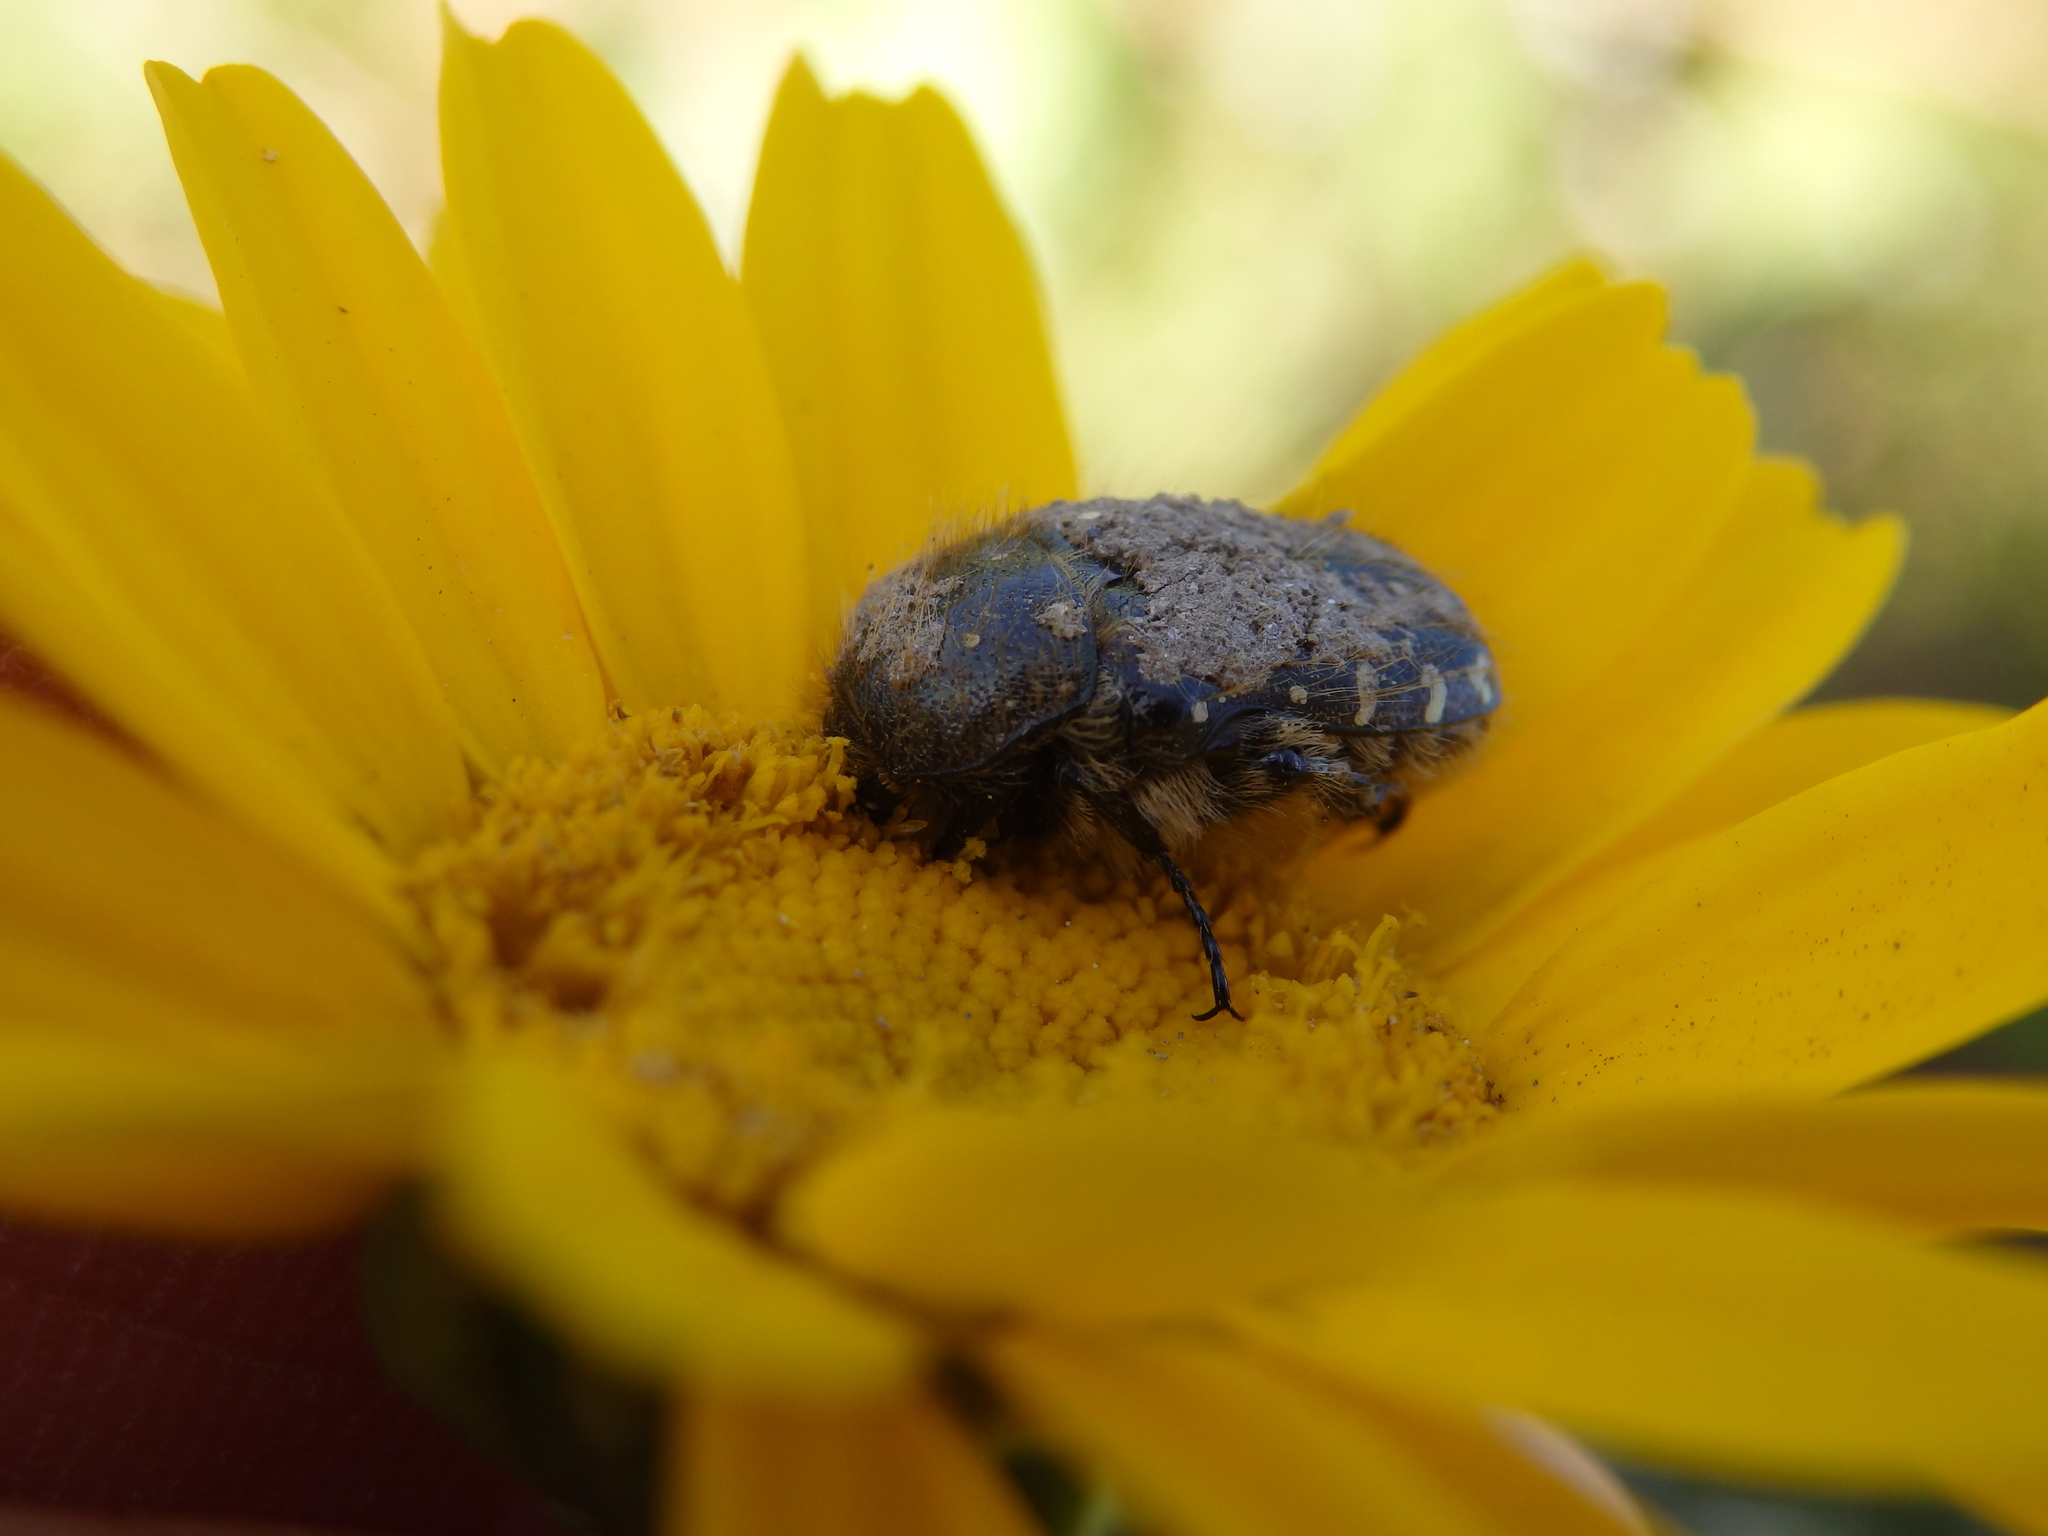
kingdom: Animalia
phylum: Arthropoda
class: Insecta
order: Coleoptera
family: Scarabaeidae
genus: Oxythyrea
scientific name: Oxythyrea funesta
